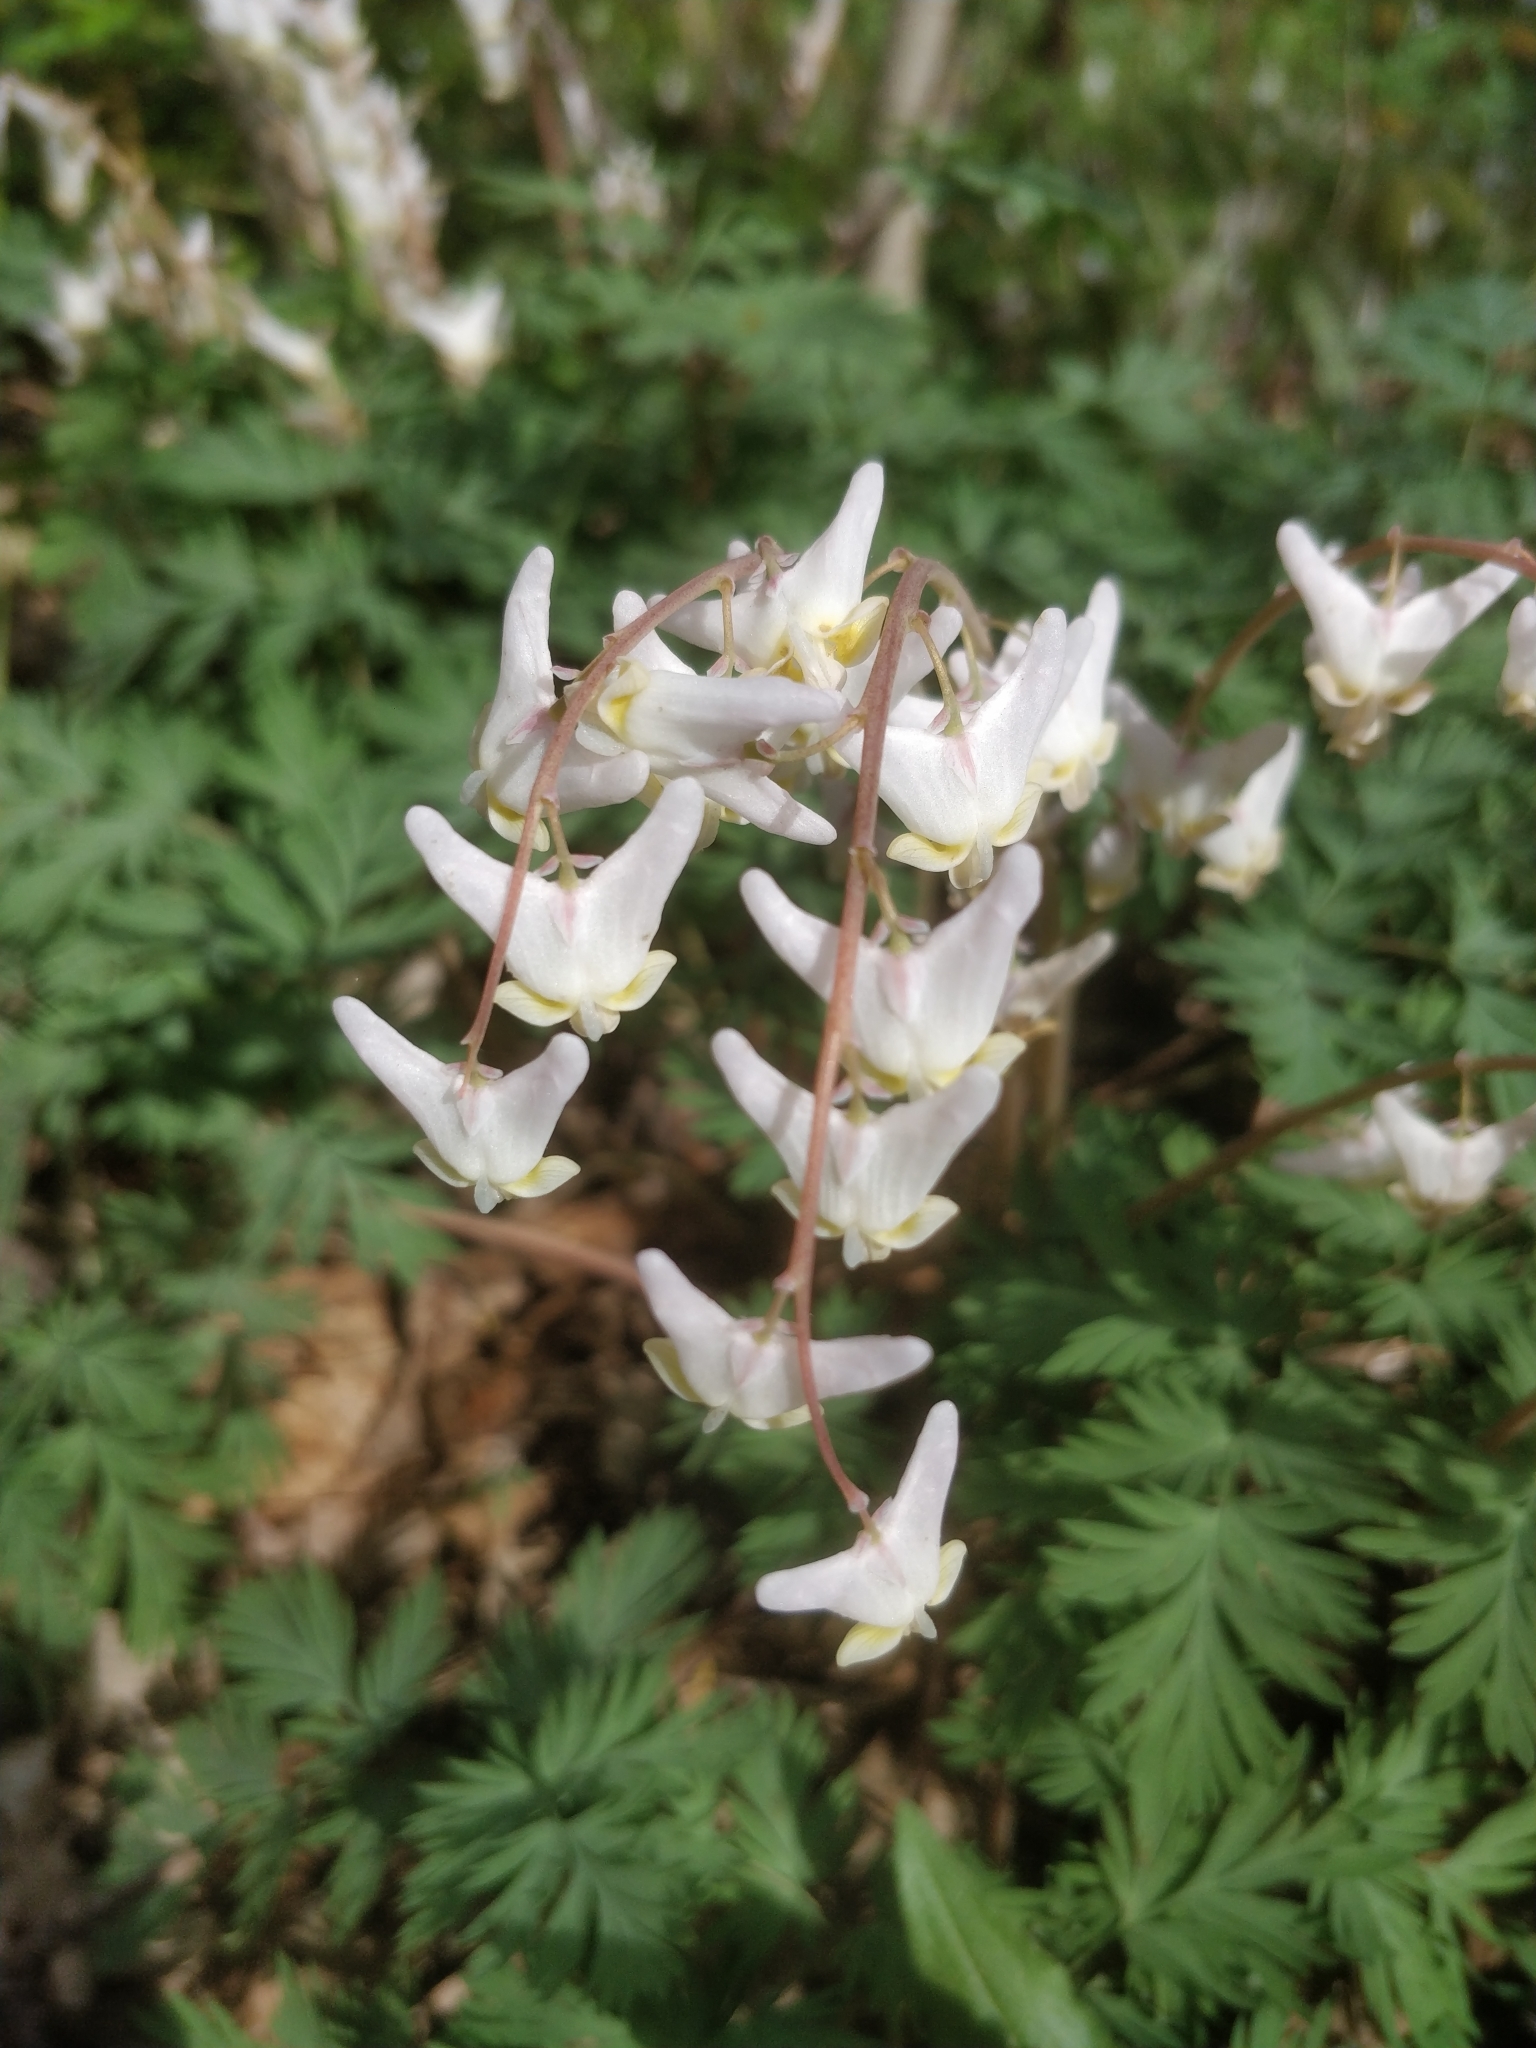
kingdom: Plantae
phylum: Tracheophyta
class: Magnoliopsida
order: Ranunculales
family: Papaveraceae
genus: Dicentra
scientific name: Dicentra cucullaria
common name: Dutchman's breeches
